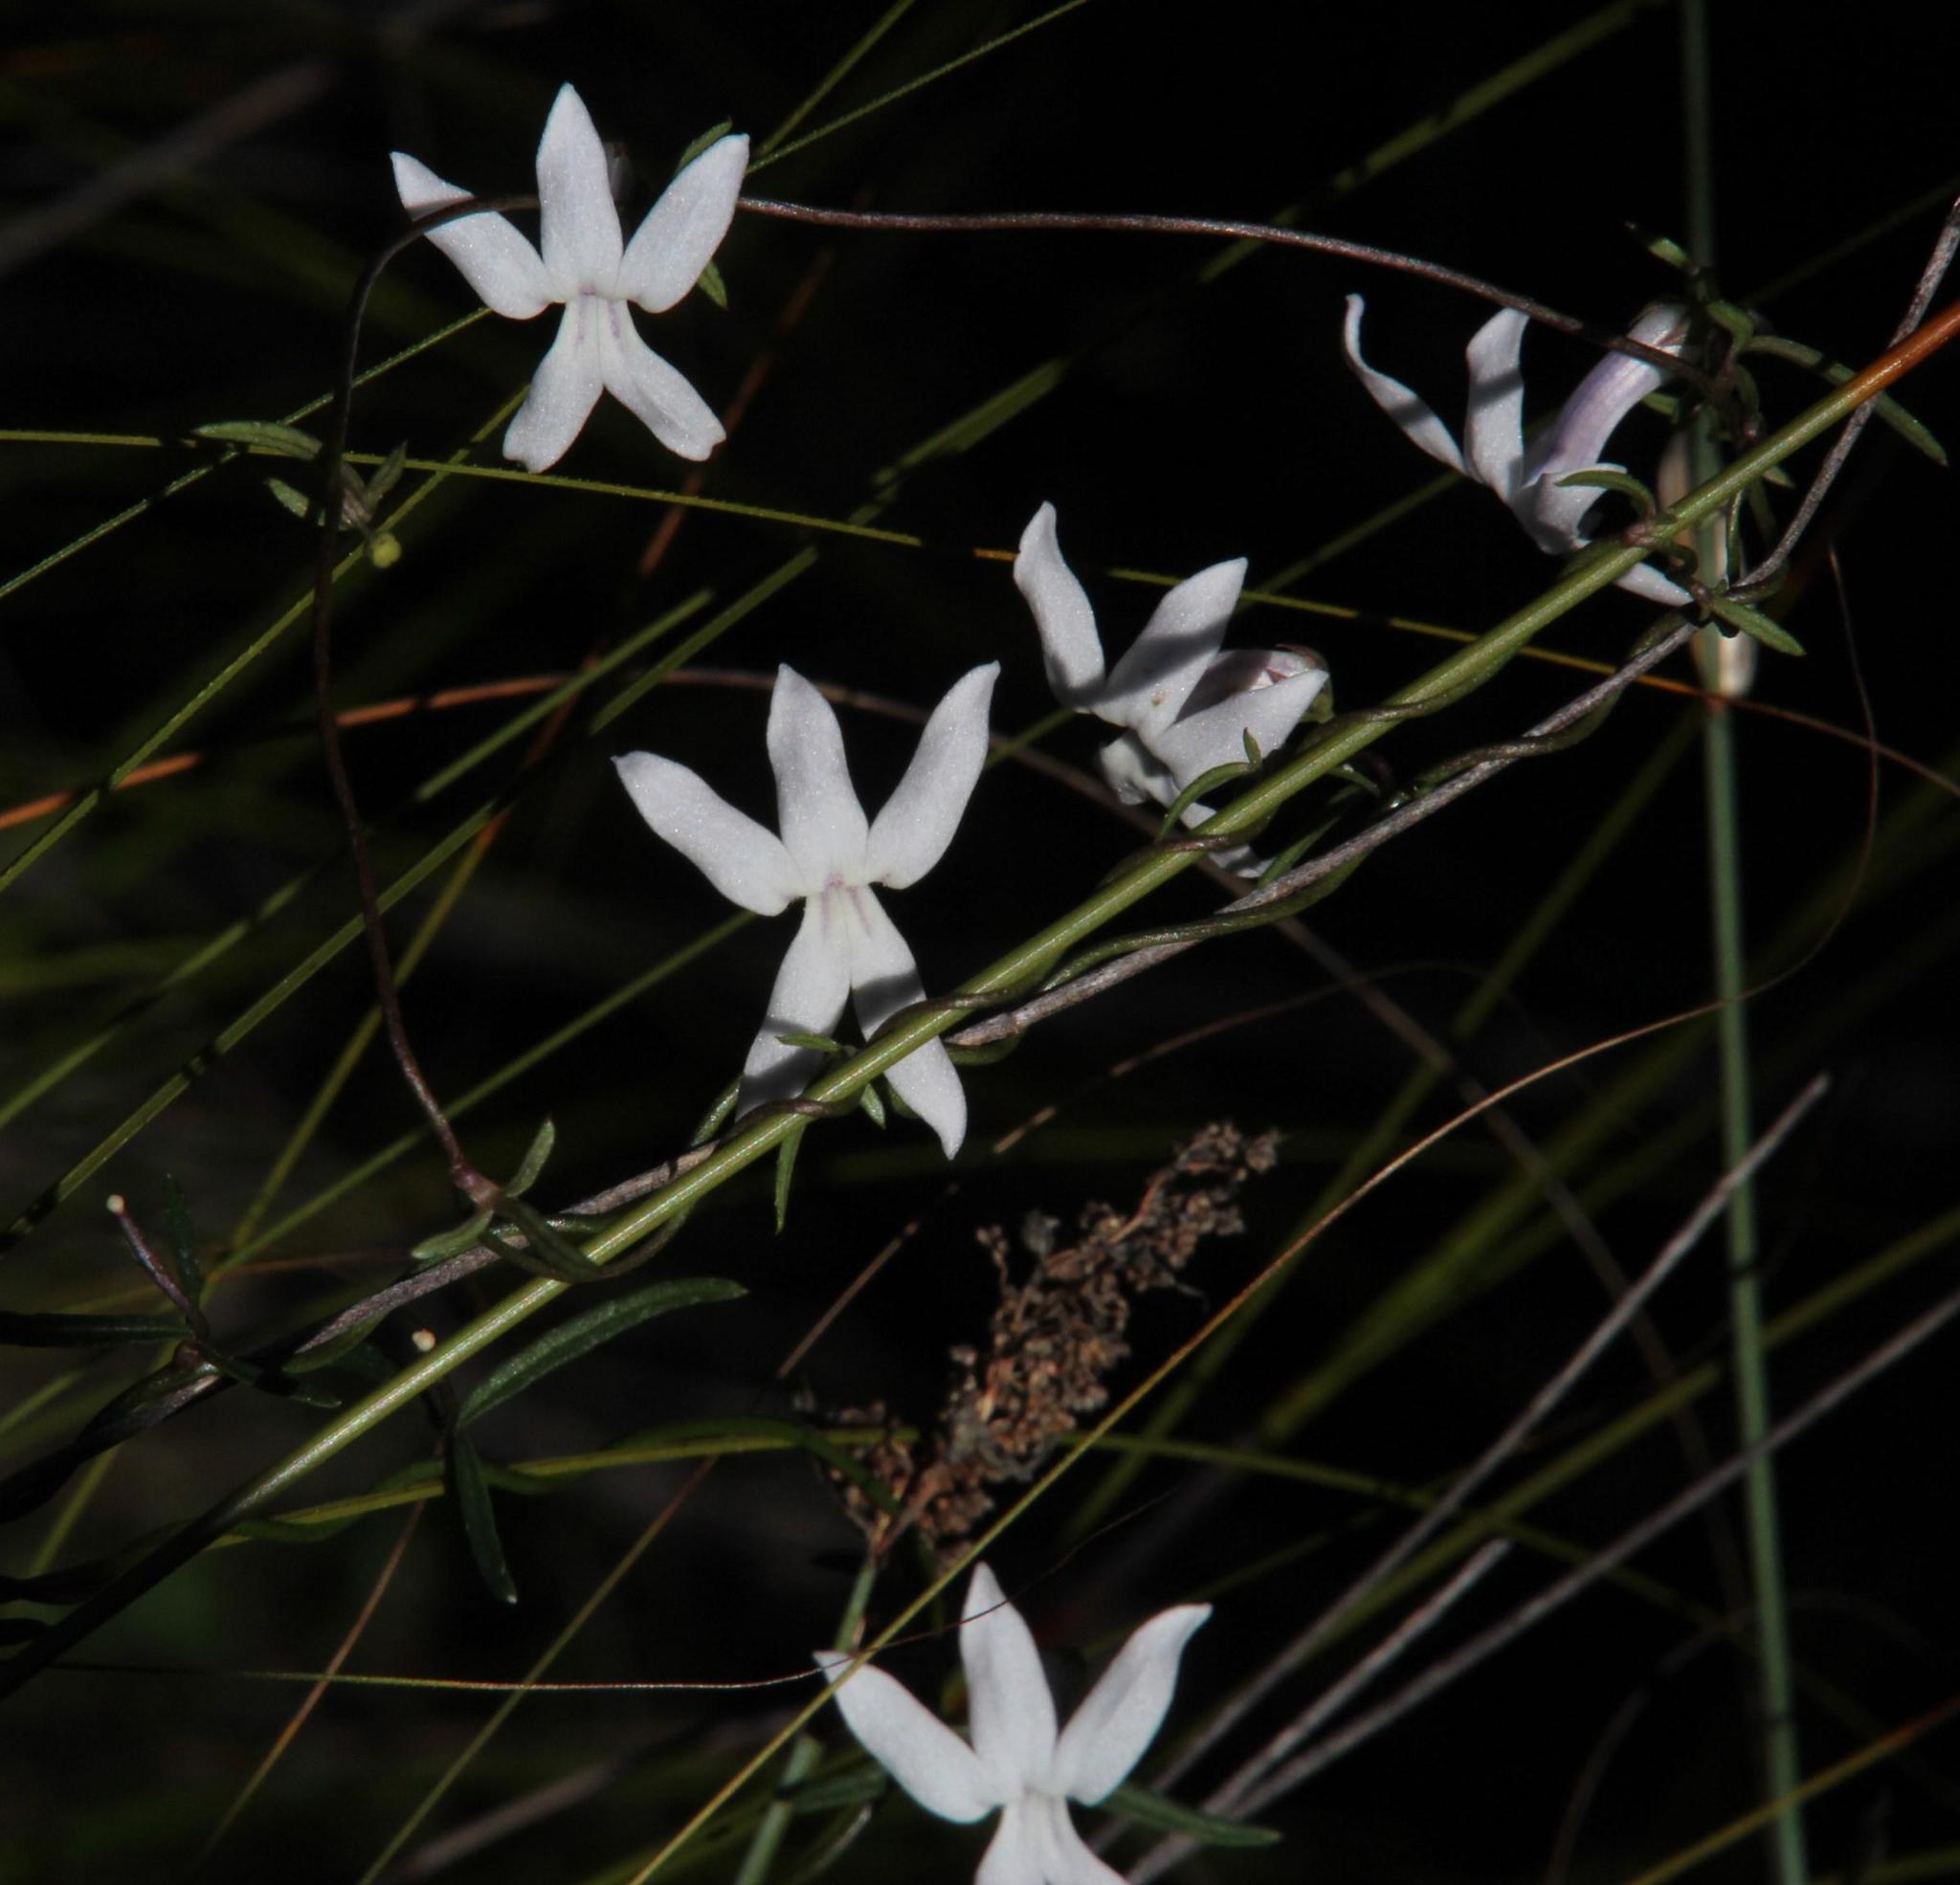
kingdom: Plantae
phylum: Tracheophyta
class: Magnoliopsida
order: Asterales
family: Campanulaceae
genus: Cyphia
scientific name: Cyphia digitata
